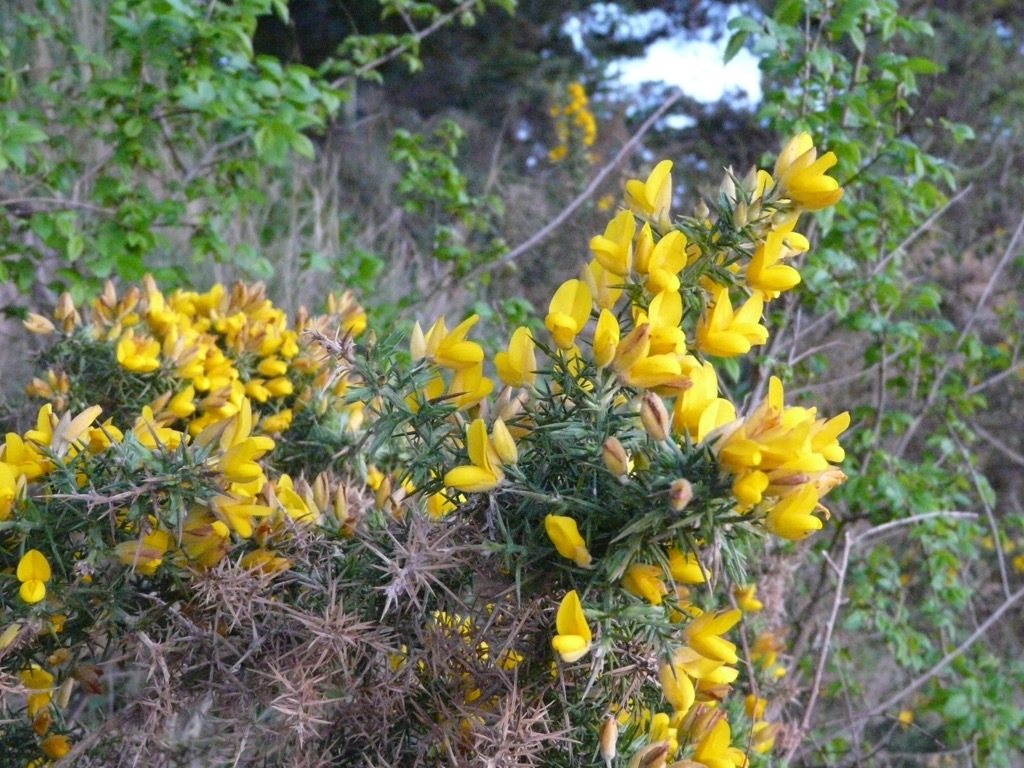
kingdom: Plantae
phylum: Tracheophyta
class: Magnoliopsida
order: Fabales
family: Fabaceae
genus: Ulex
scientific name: Ulex europaeus
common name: Common gorse
